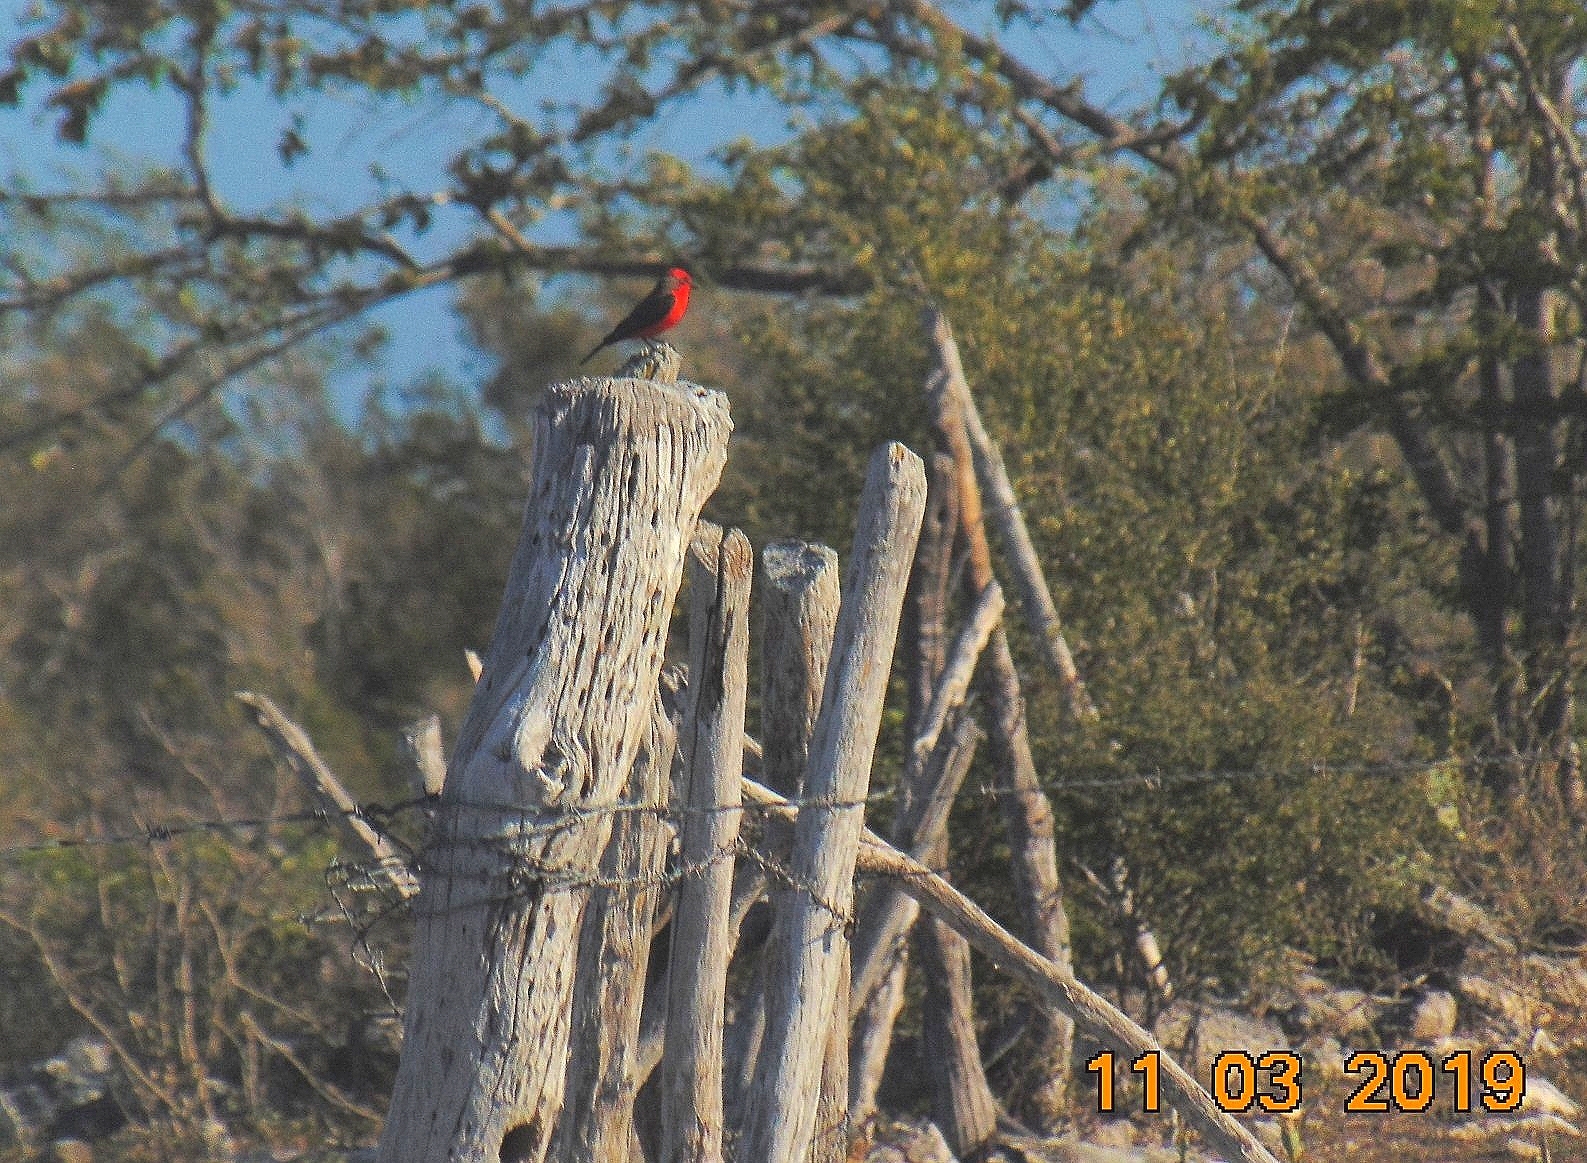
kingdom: Animalia
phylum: Chordata
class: Aves
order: Passeriformes
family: Tyrannidae
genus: Pyrocephalus
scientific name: Pyrocephalus rubinus
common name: Vermilion flycatcher
